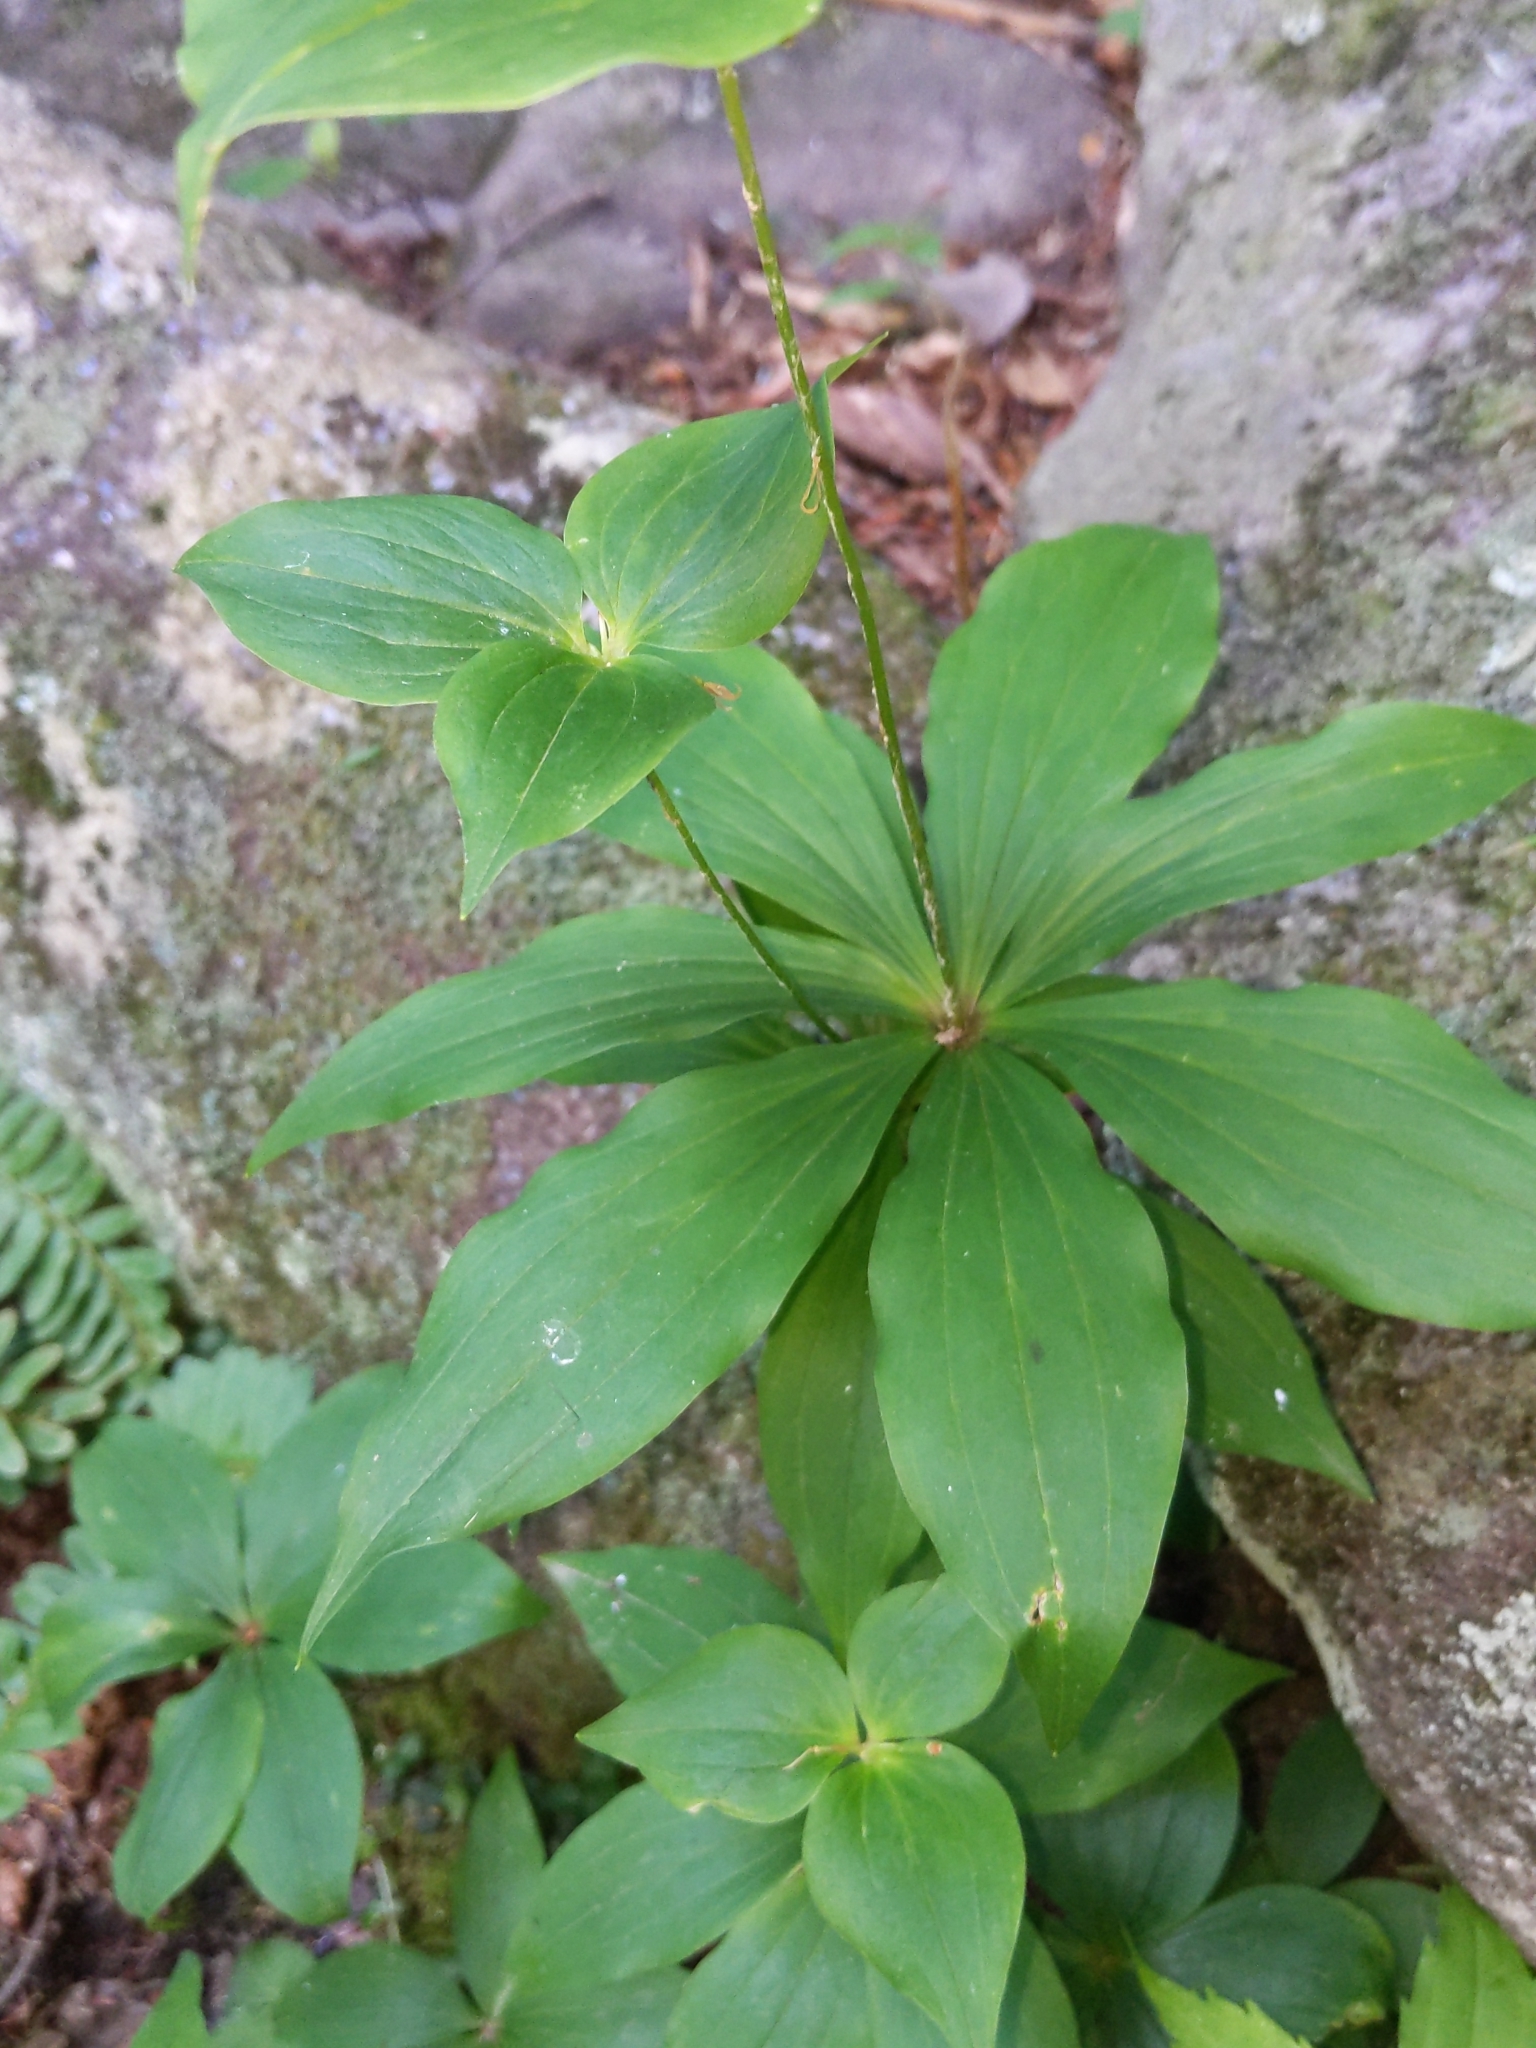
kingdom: Plantae
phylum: Tracheophyta
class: Liliopsida
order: Liliales
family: Liliaceae
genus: Medeola
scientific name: Medeola virginiana
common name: Indian cucumber-root
